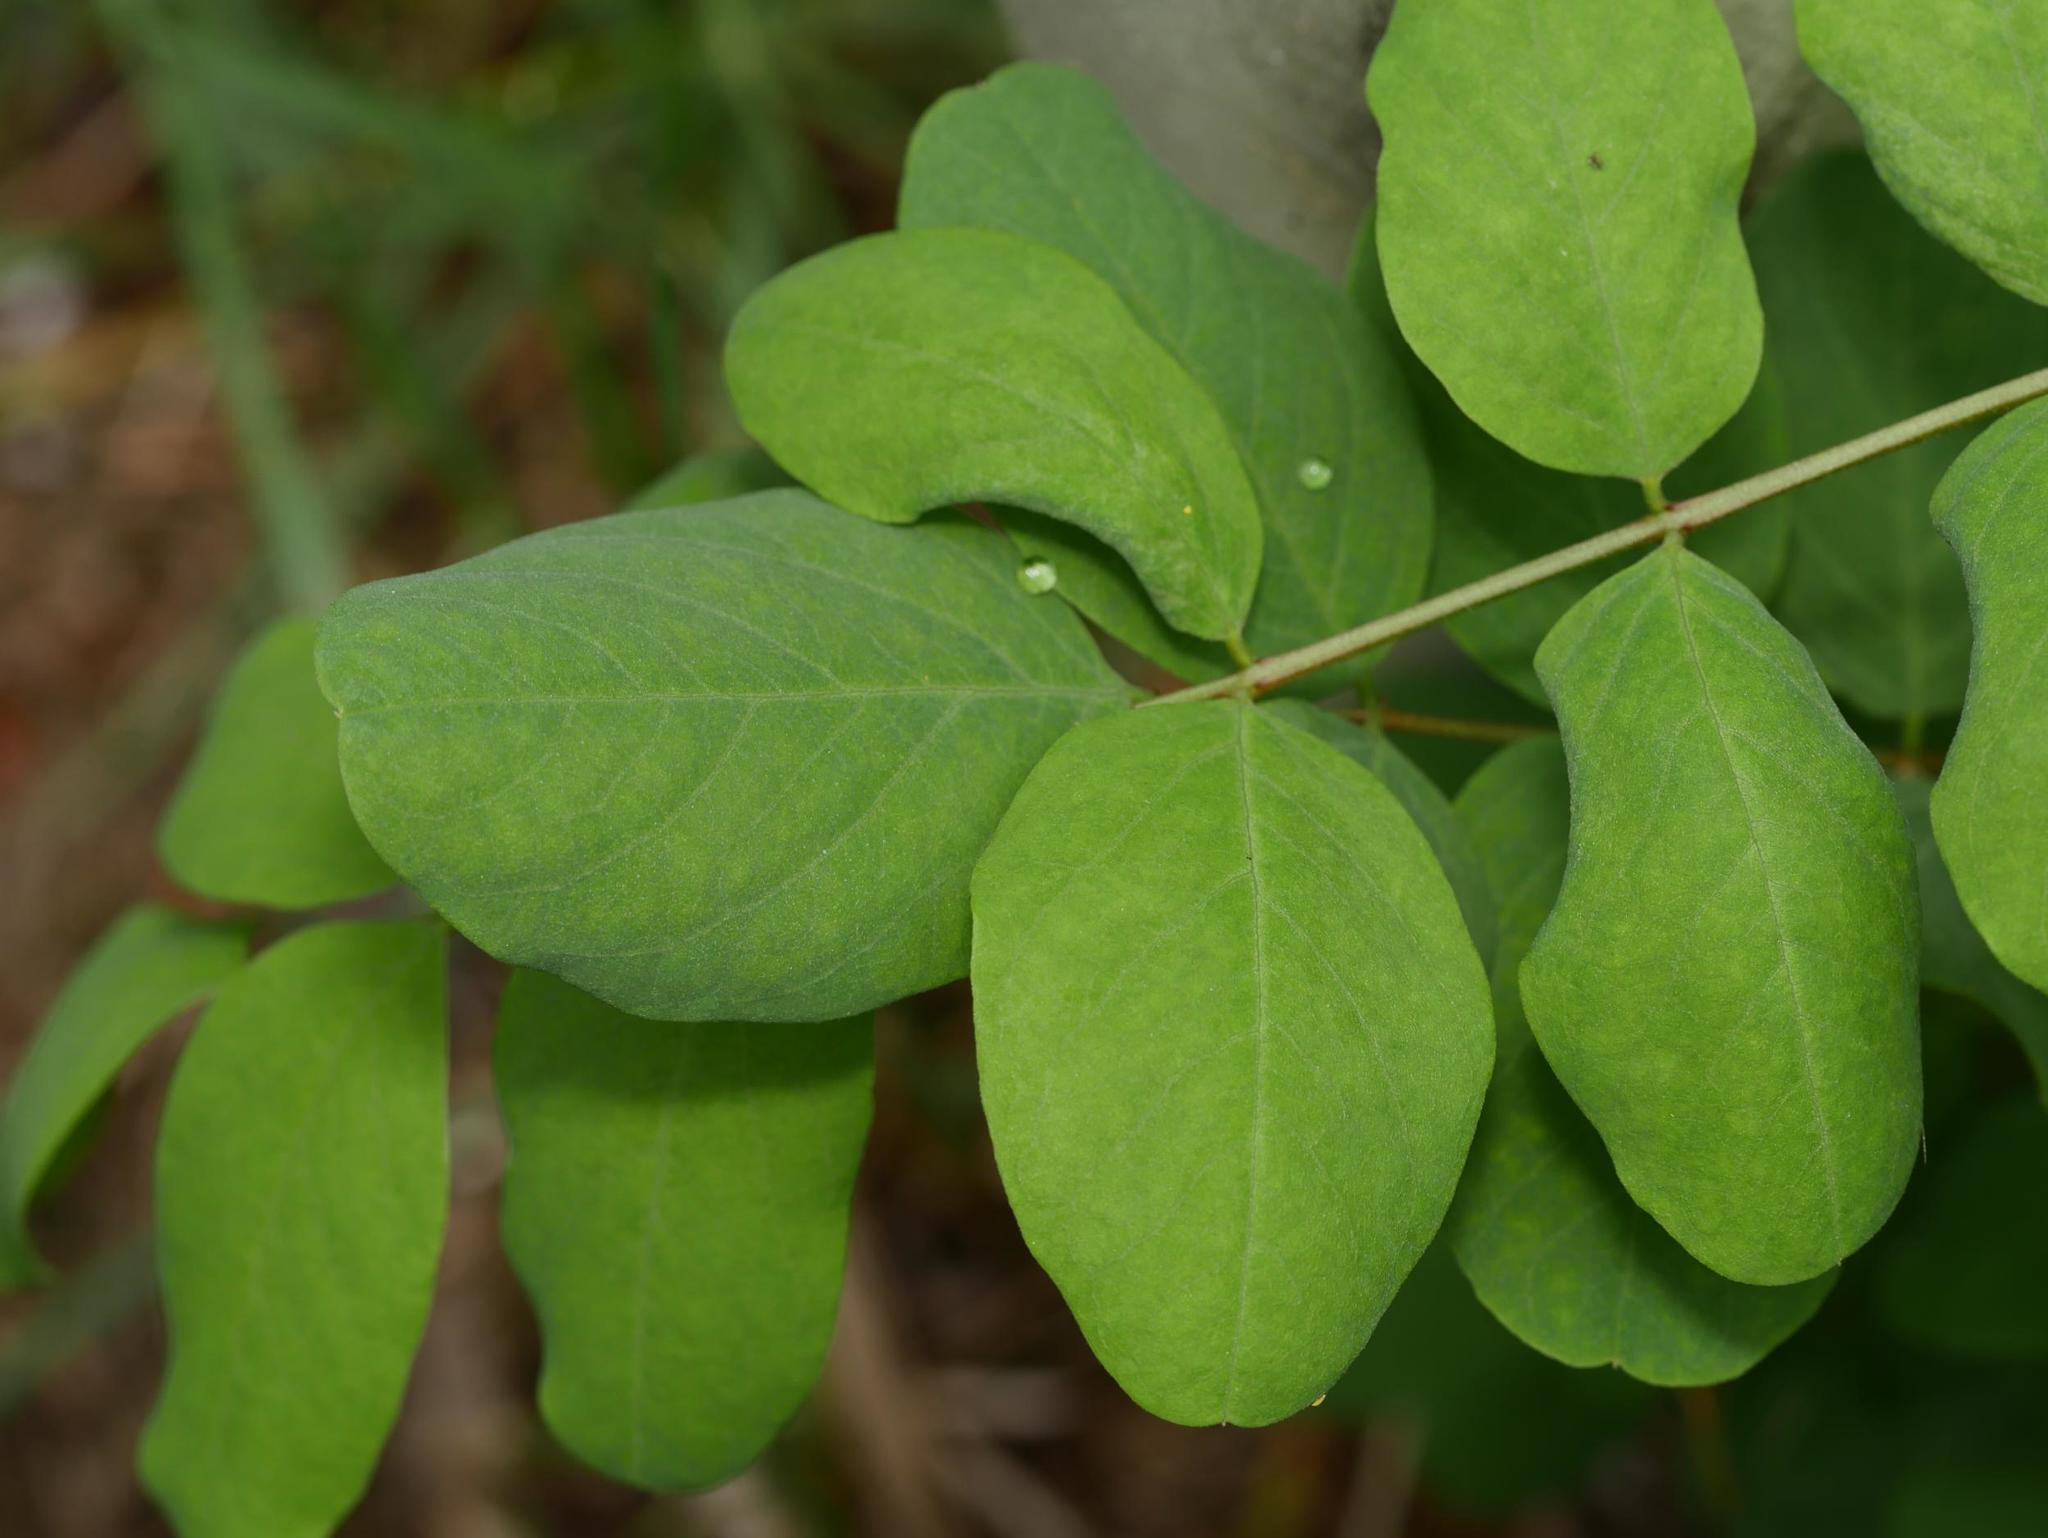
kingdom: Plantae
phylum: Tracheophyta
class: Magnoliopsida
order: Dipsacales
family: Caprifoliaceae
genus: Symphoricarpos
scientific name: Symphoricarpos albus
